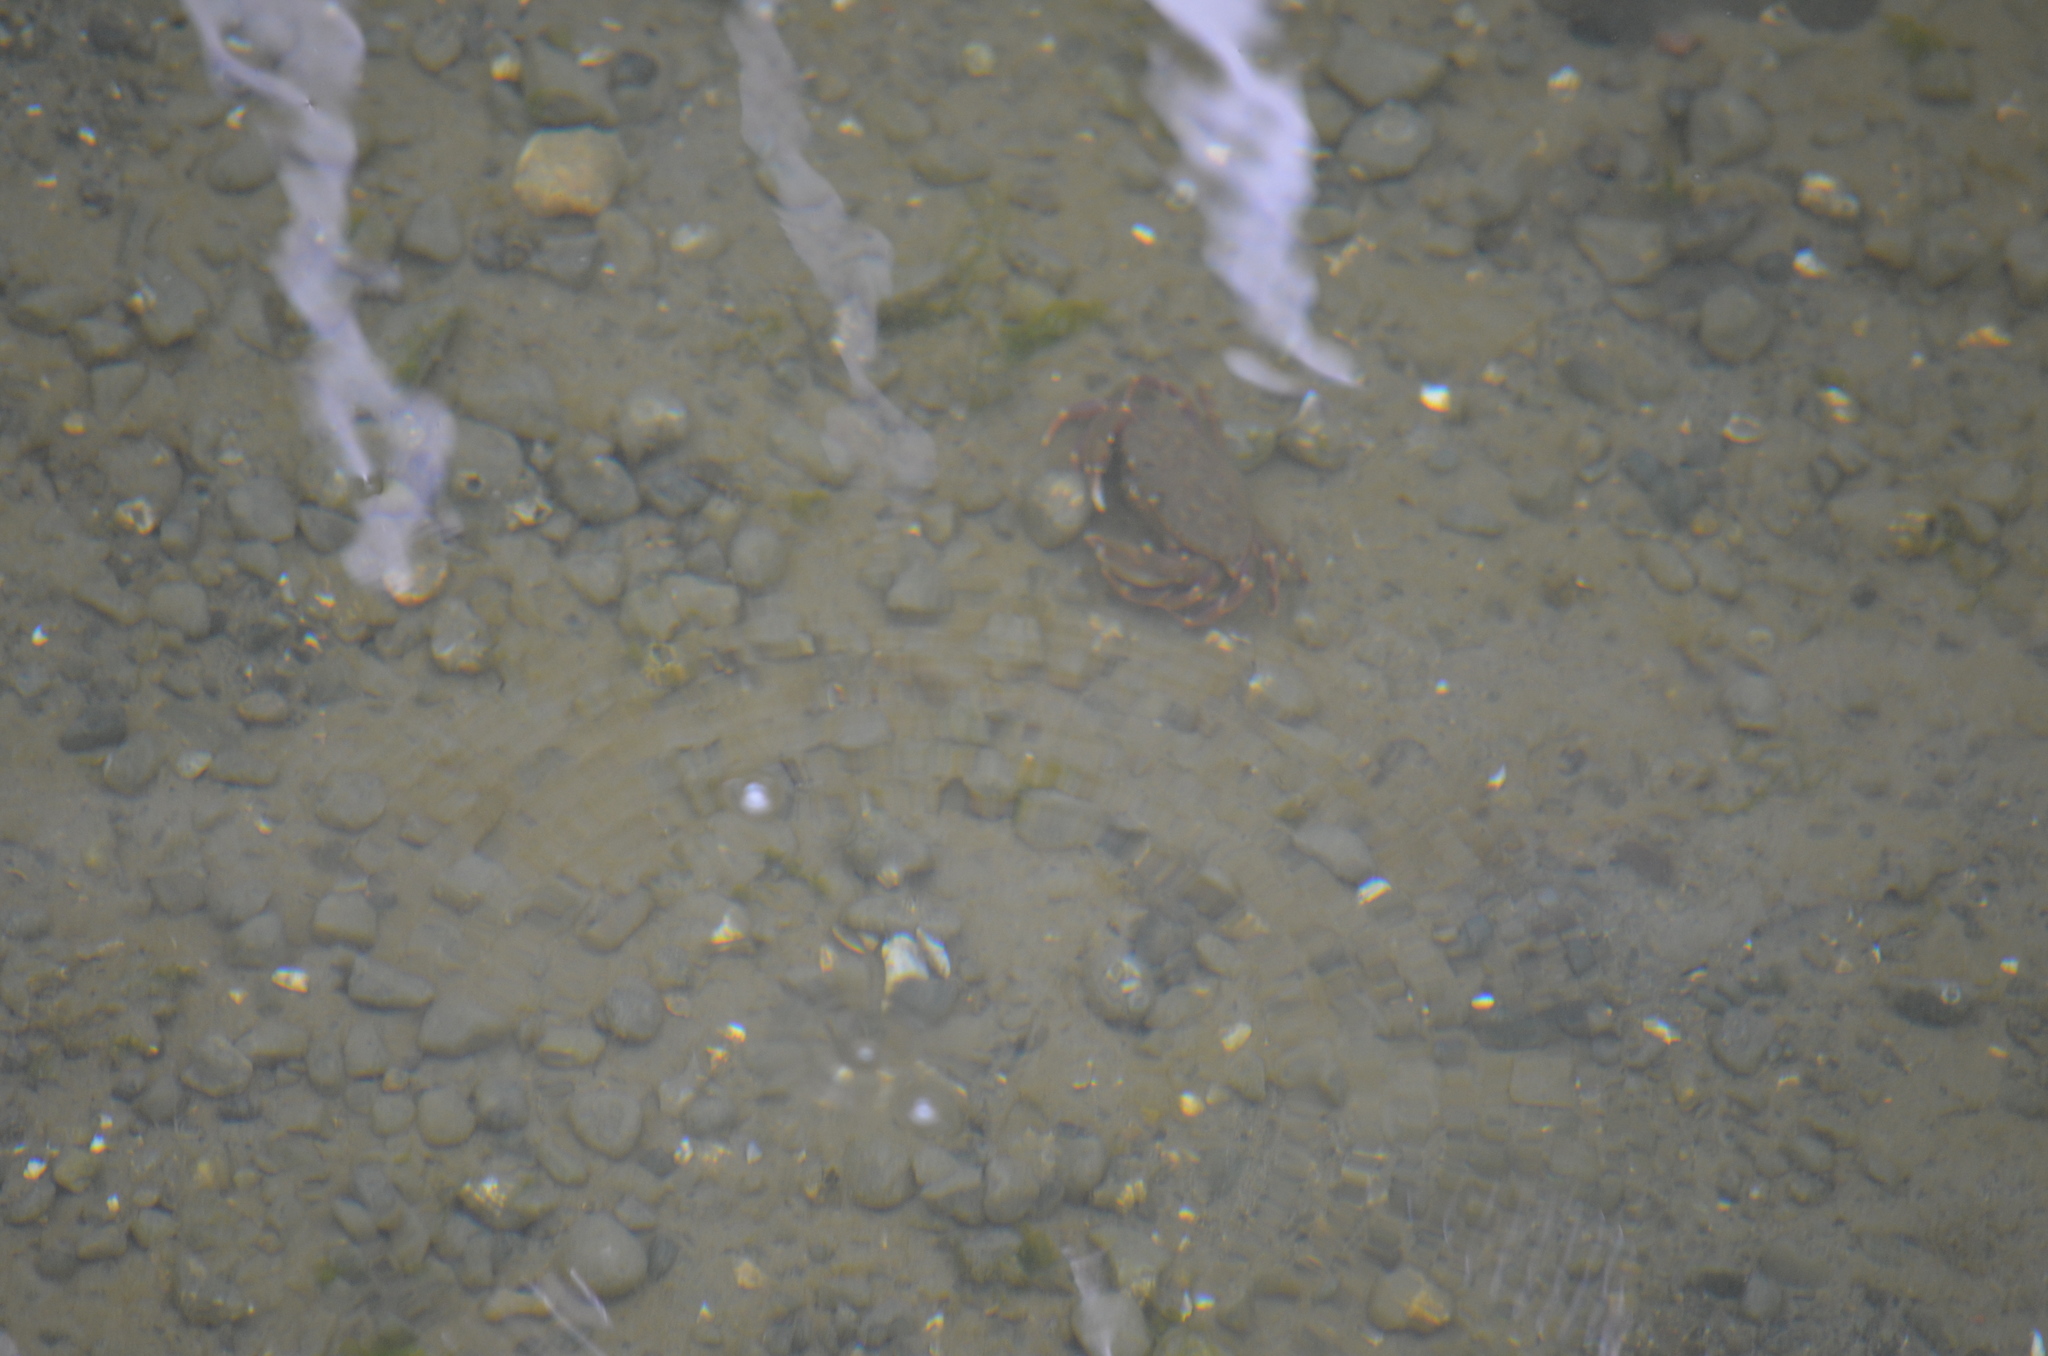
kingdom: Animalia
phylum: Arthropoda
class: Malacostraca
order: Decapoda
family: Cancridae
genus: Metacarcinus
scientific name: Metacarcinus gracilis
